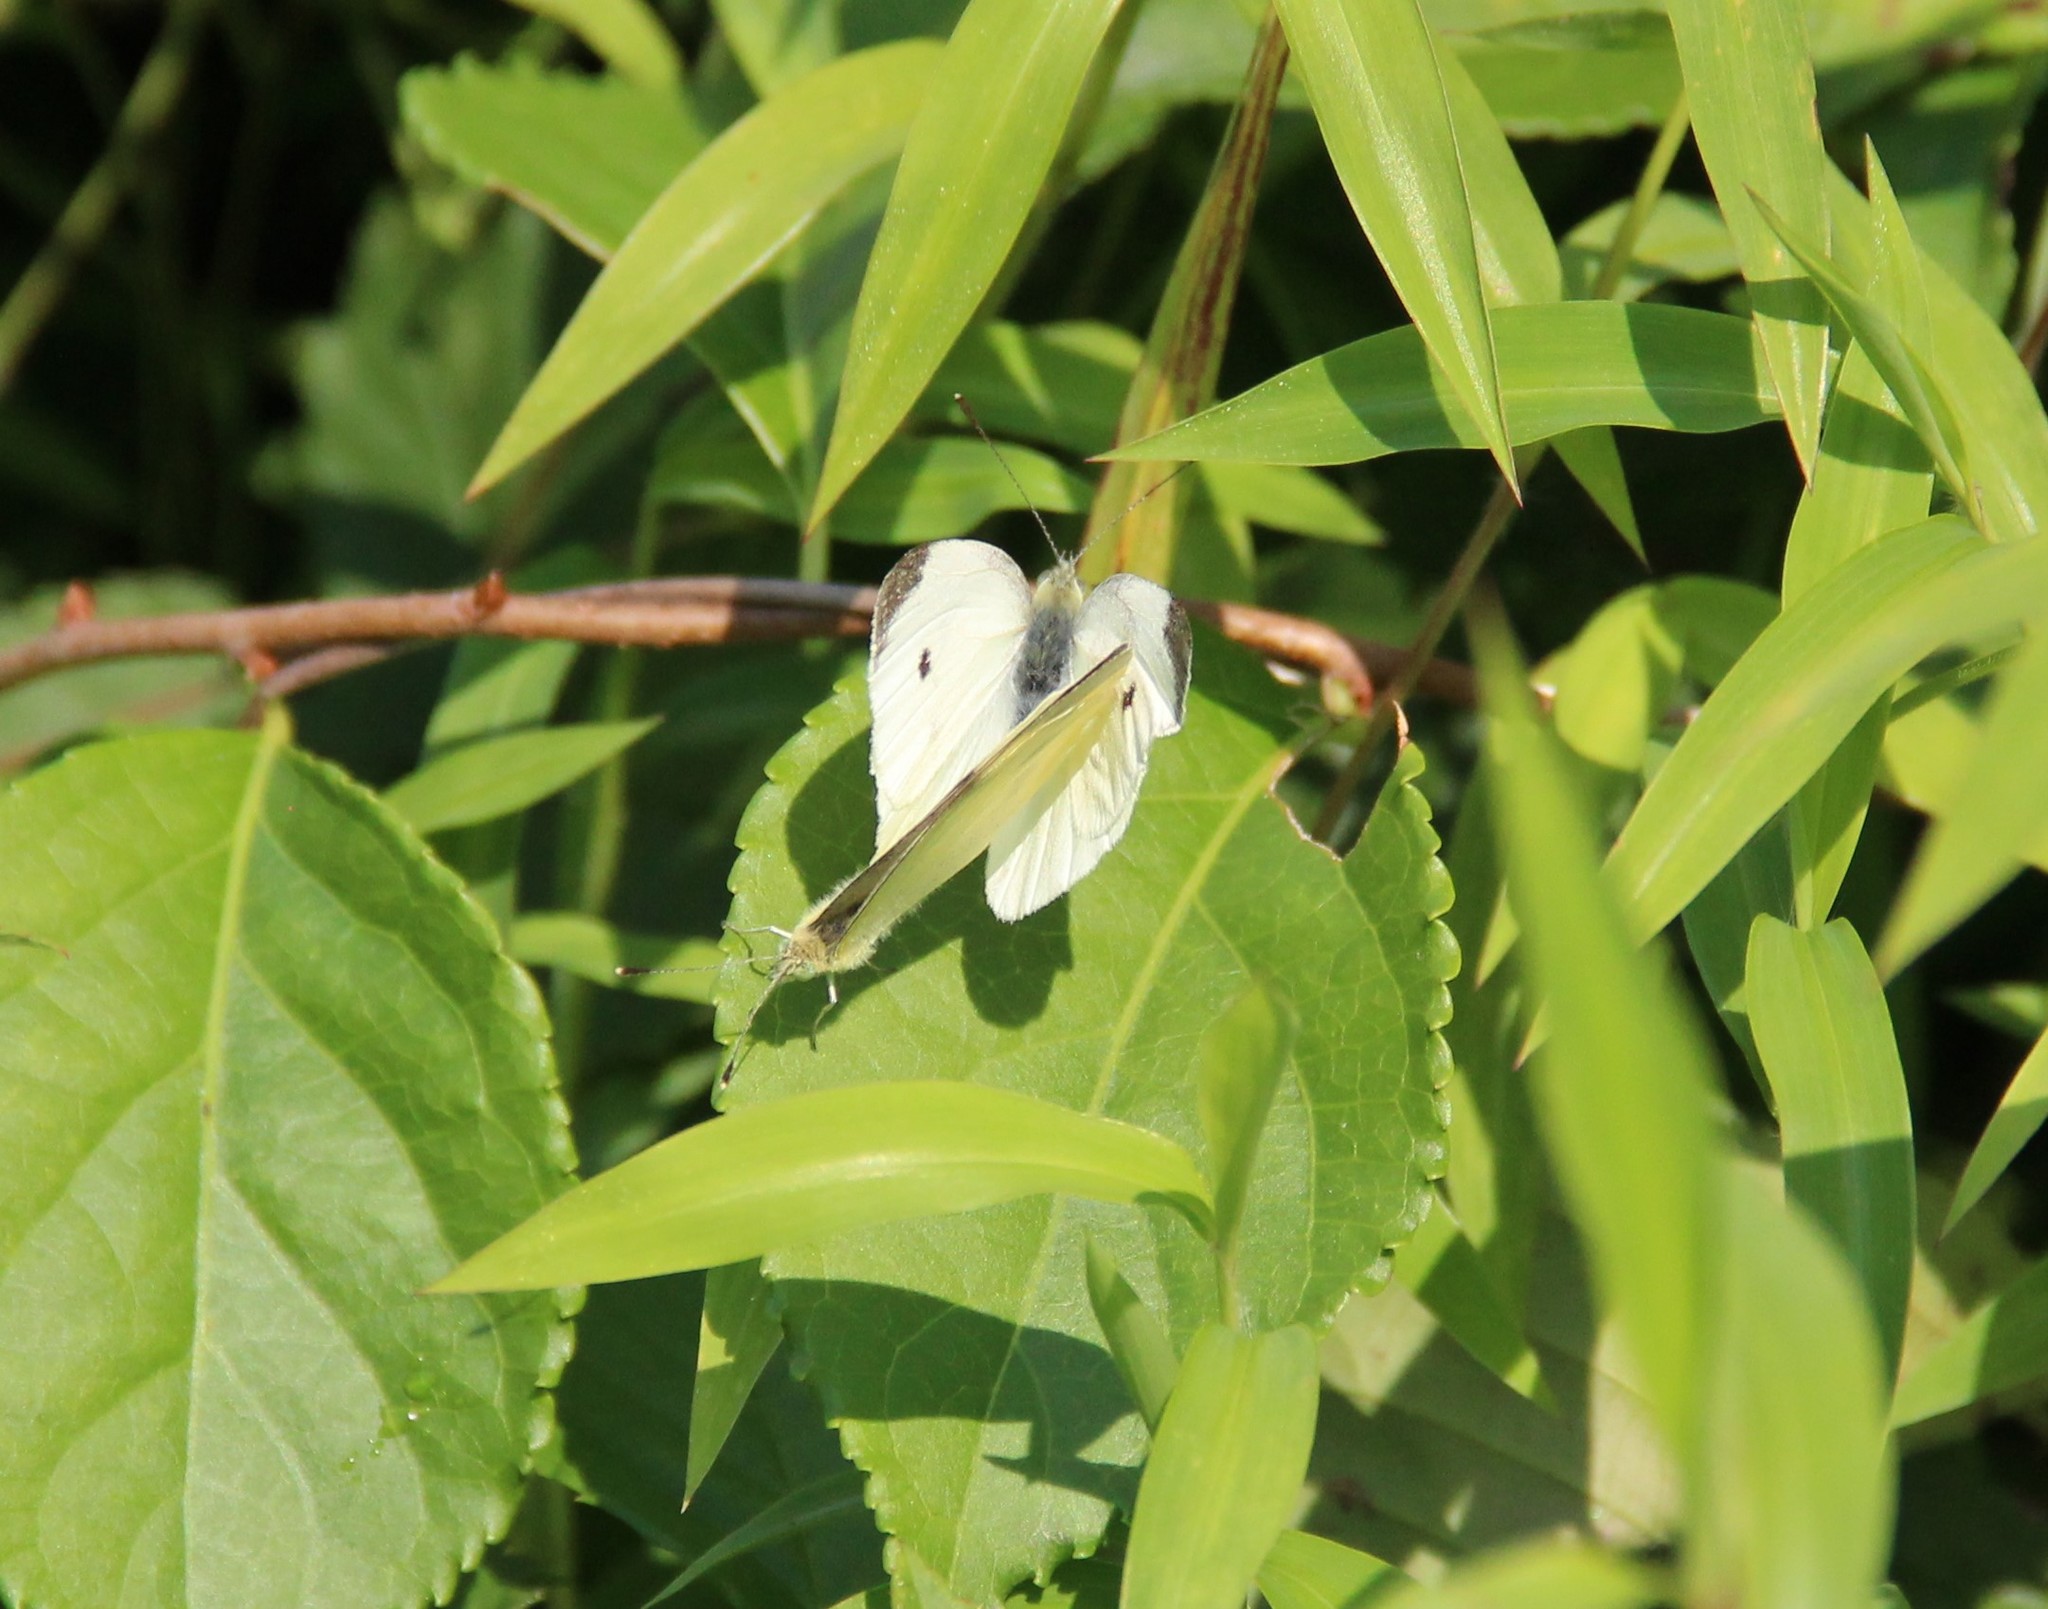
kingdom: Animalia
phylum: Arthropoda
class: Insecta
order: Lepidoptera
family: Pieridae
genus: Pieris
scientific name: Pieris rapae
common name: Small white
